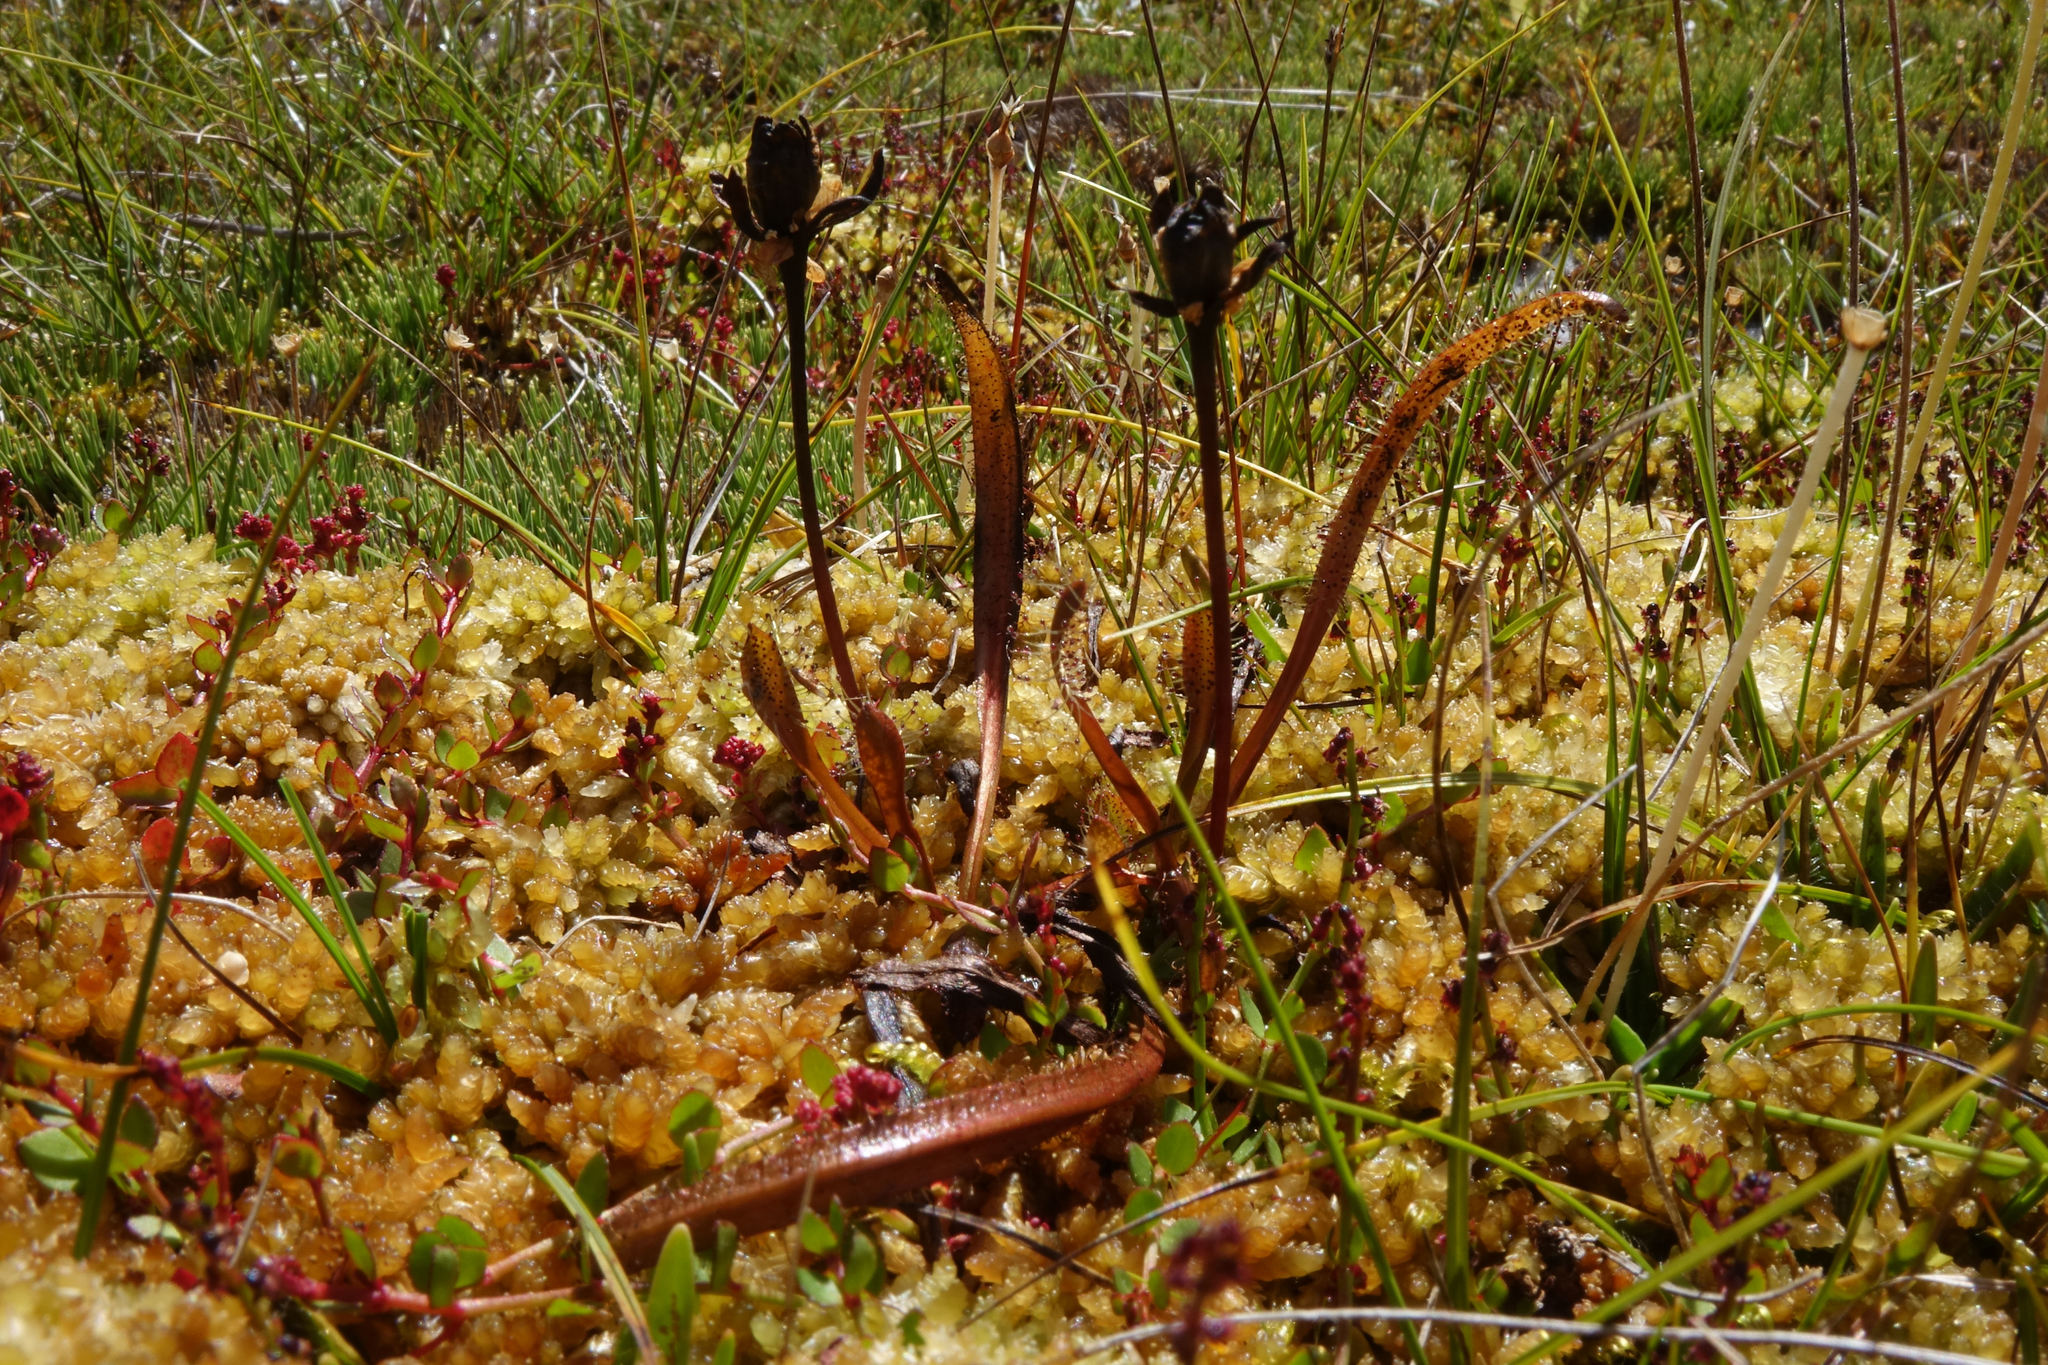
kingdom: Plantae
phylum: Tracheophyta
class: Magnoliopsida
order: Caryophyllales
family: Droseraceae
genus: Drosera
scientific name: Drosera arcturi
